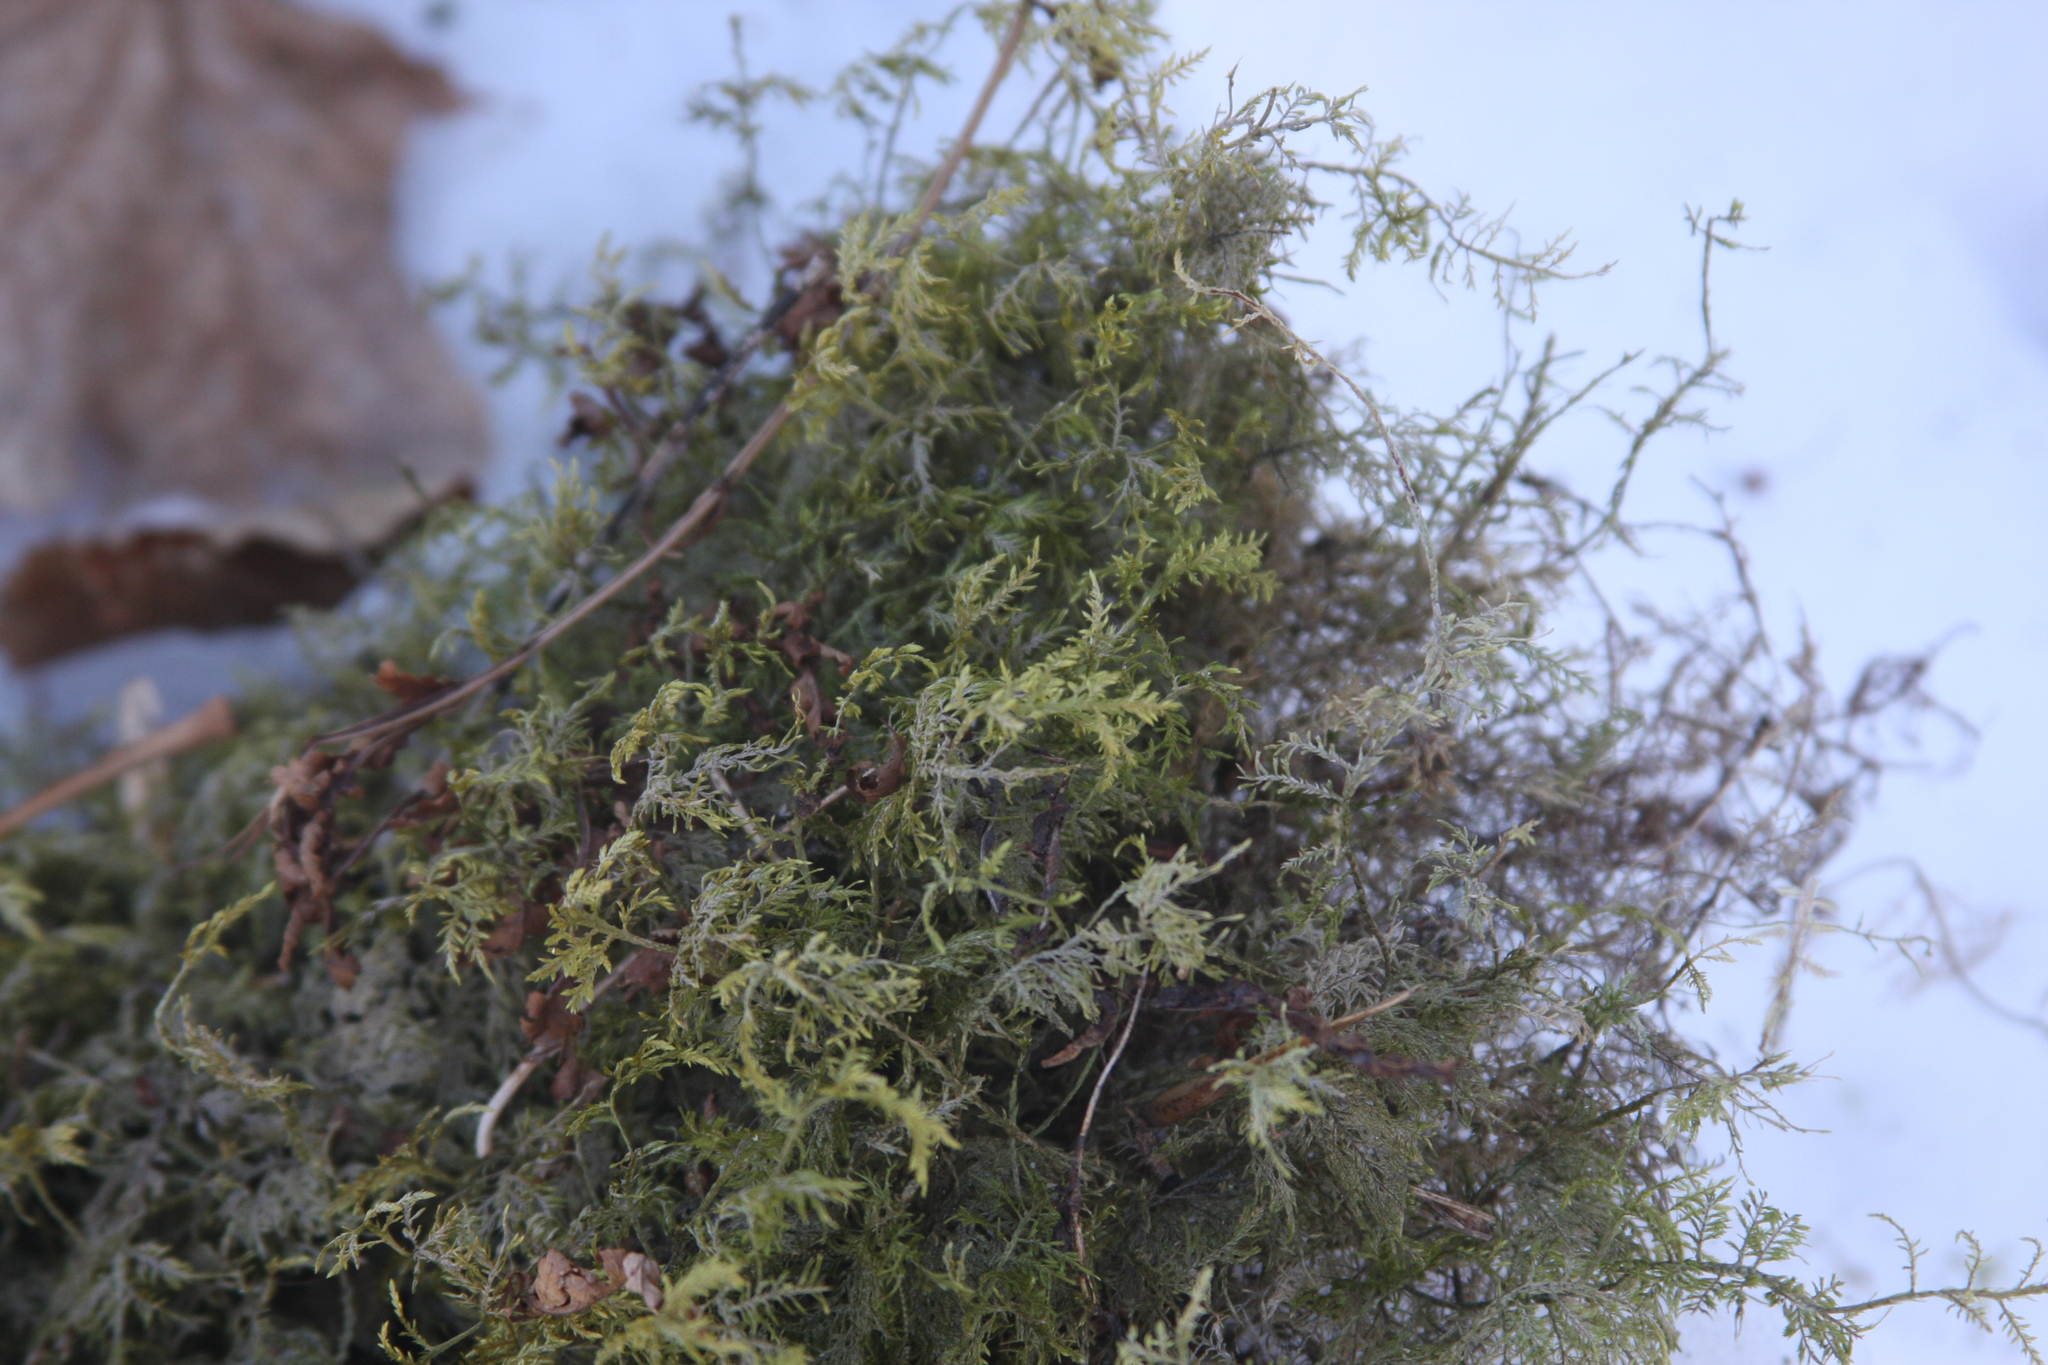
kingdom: Plantae
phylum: Bryophyta
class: Bryopsida
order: Hypnales
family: Hylocomiaceae
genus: Hylocomium
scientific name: Hylocomium splendens
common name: Stairstep moss
